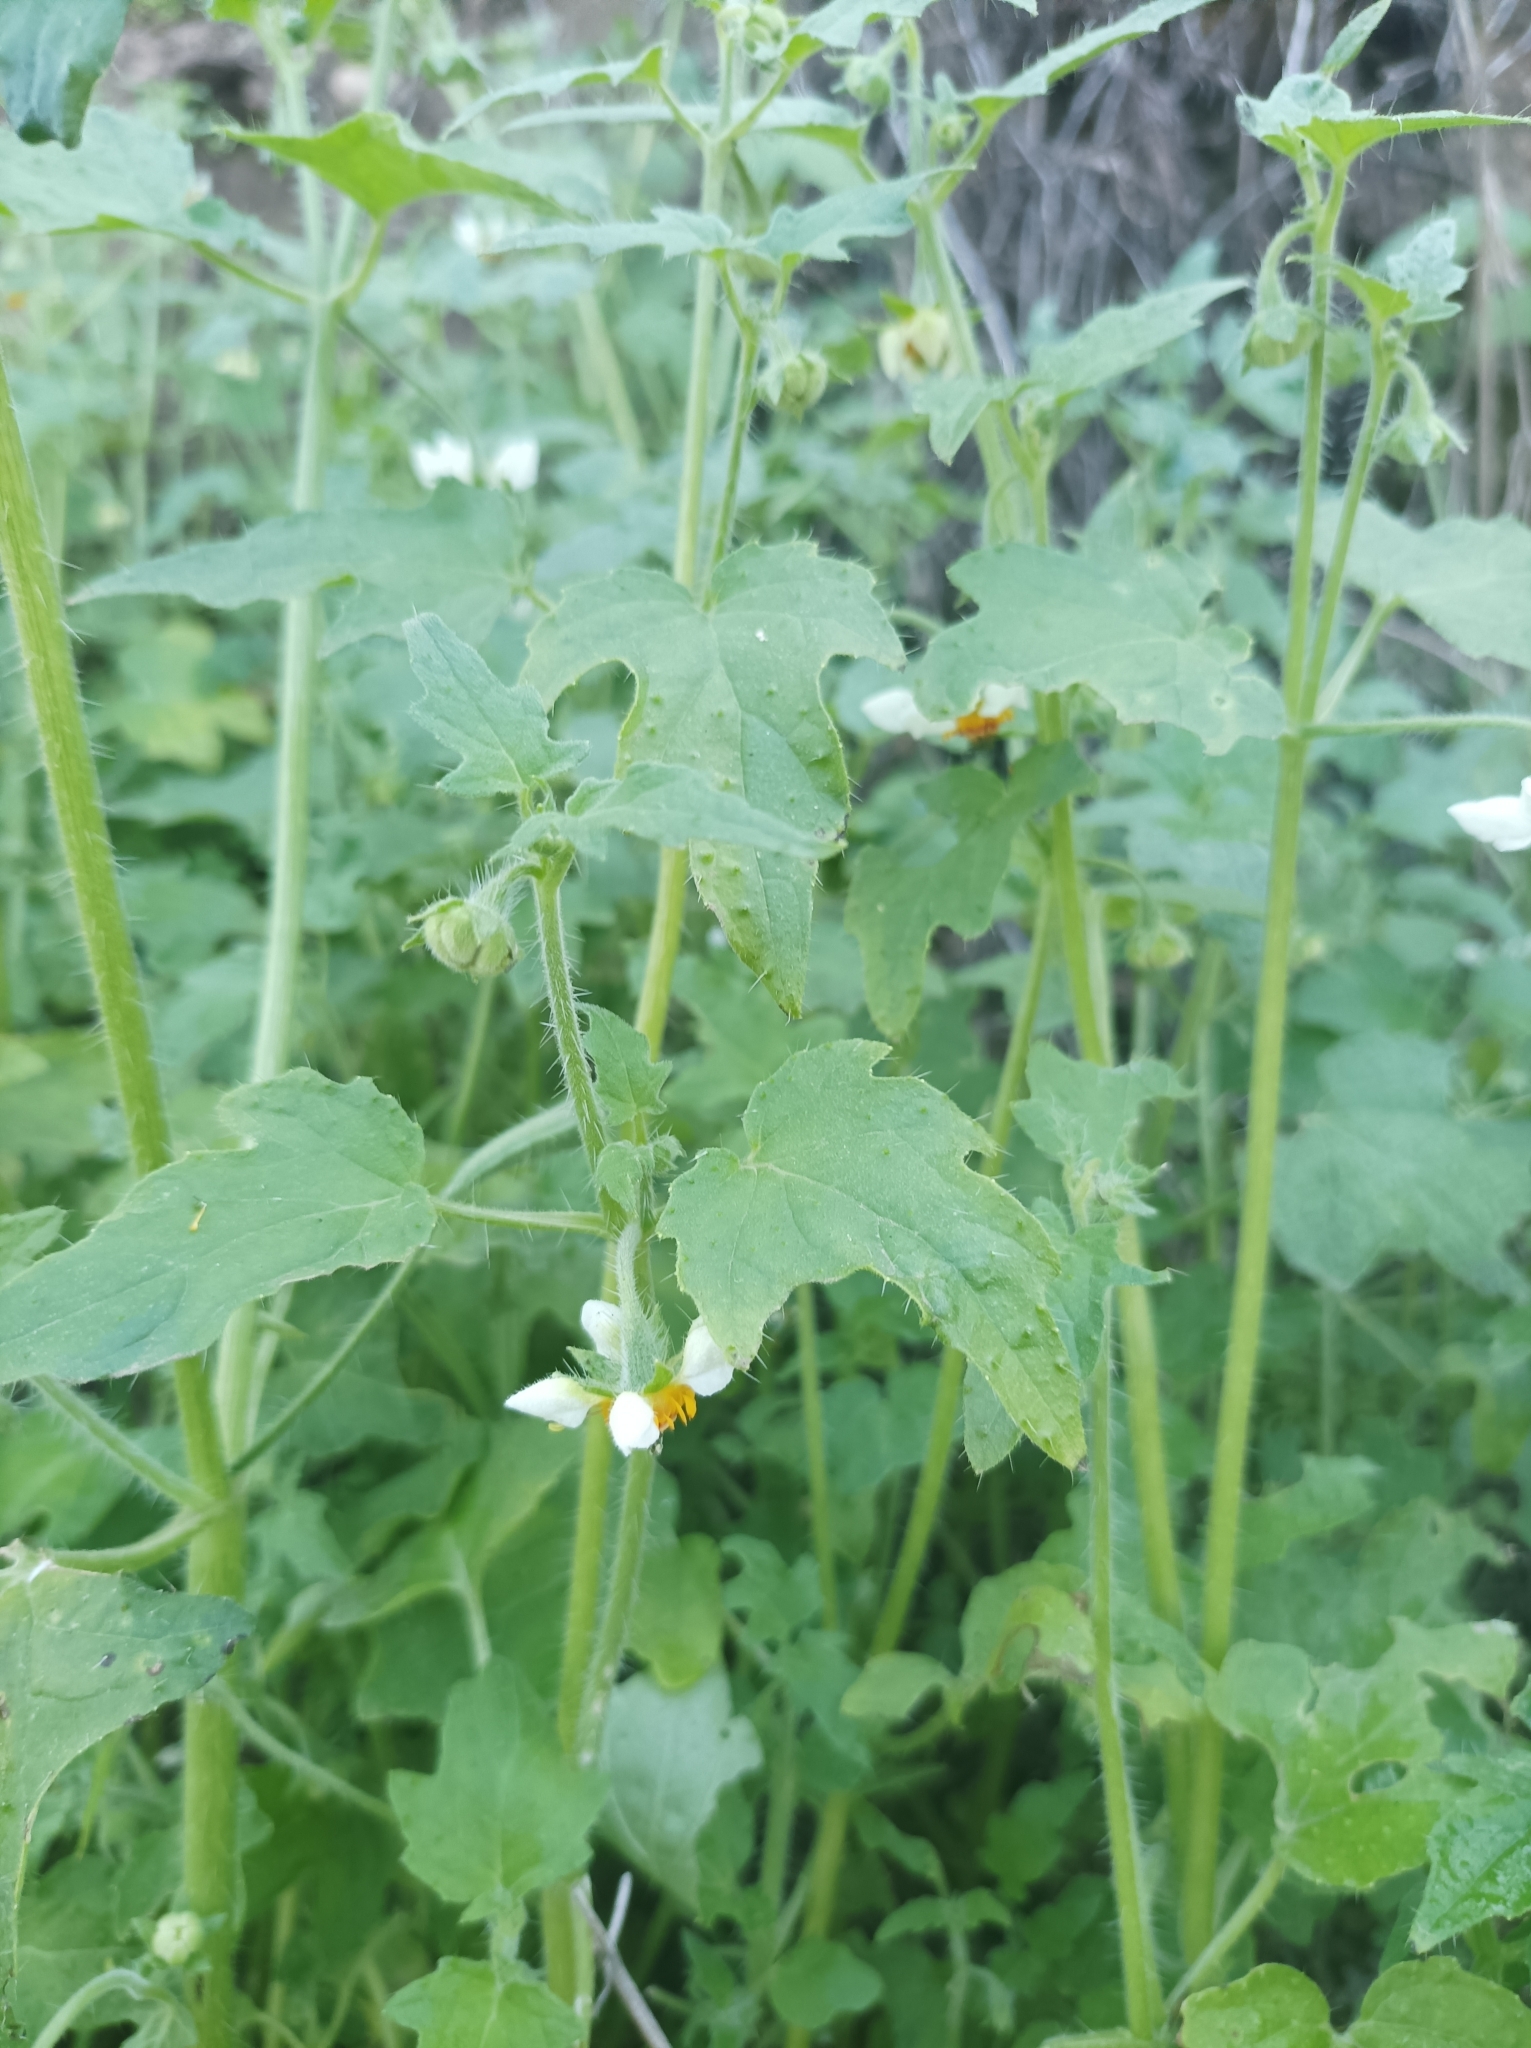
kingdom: Plantae
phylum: Tracheophyta
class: Magnoliopsida
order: Cornales
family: Loasaceae
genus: Loasa
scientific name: Loasa triloba
